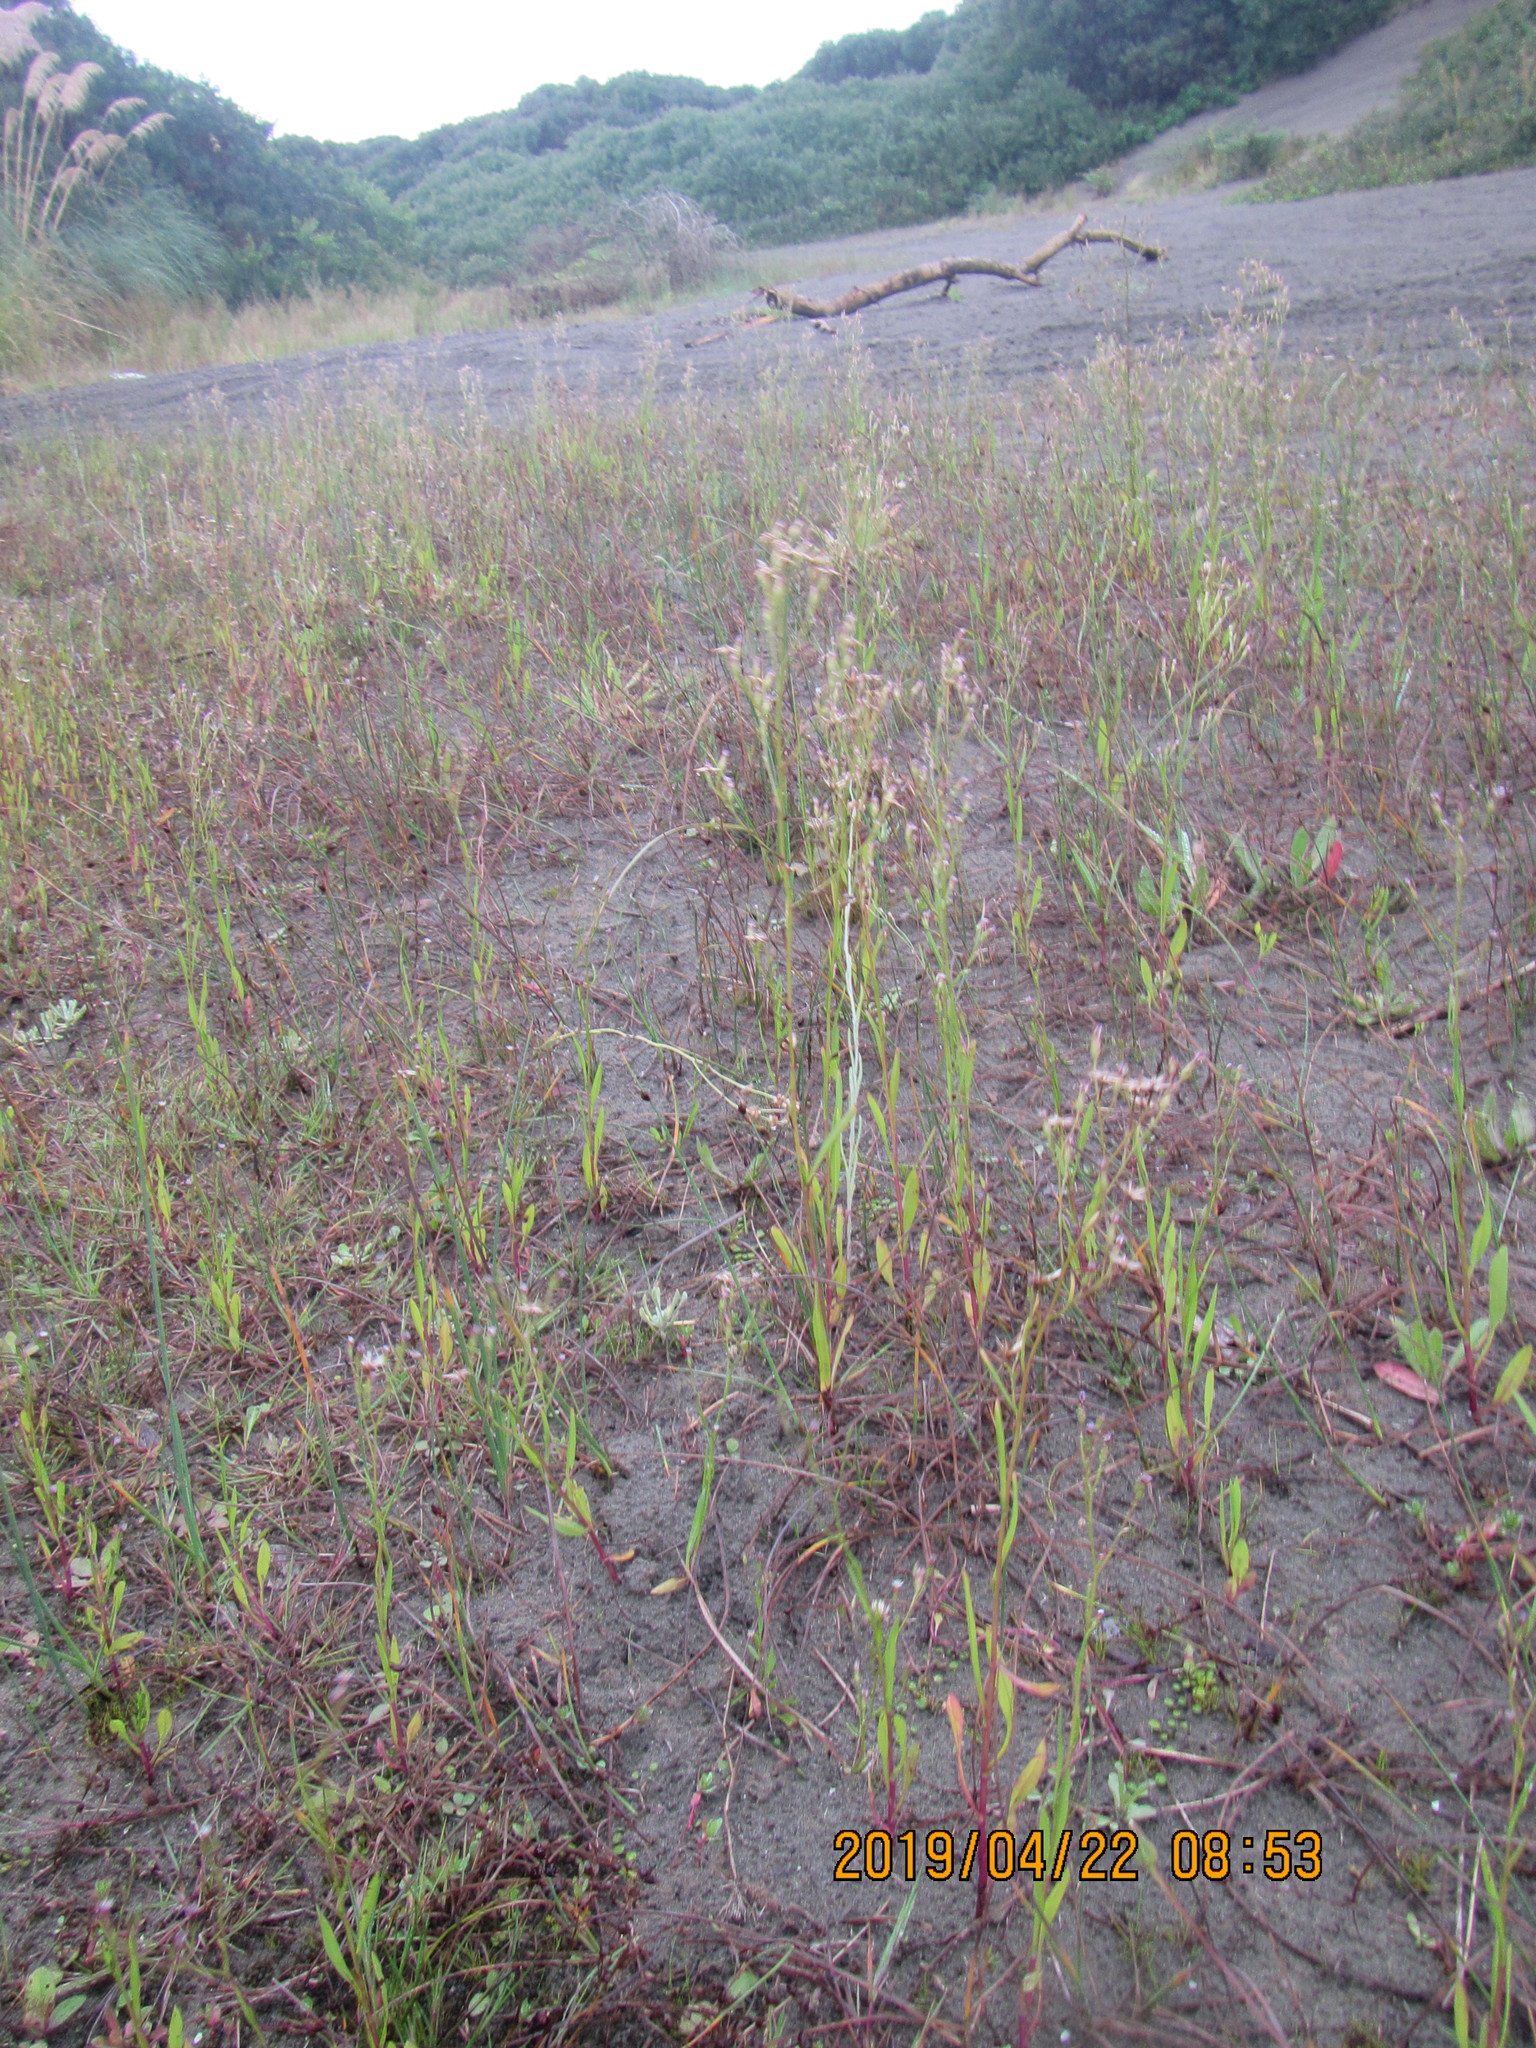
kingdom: Plantae
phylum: Tracheophyta
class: Magnoliopsida
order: Asterales
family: Asteraceae
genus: Symphyotrichum
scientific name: Symphyotrichum subulatum
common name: Annual saltmarsh aster
